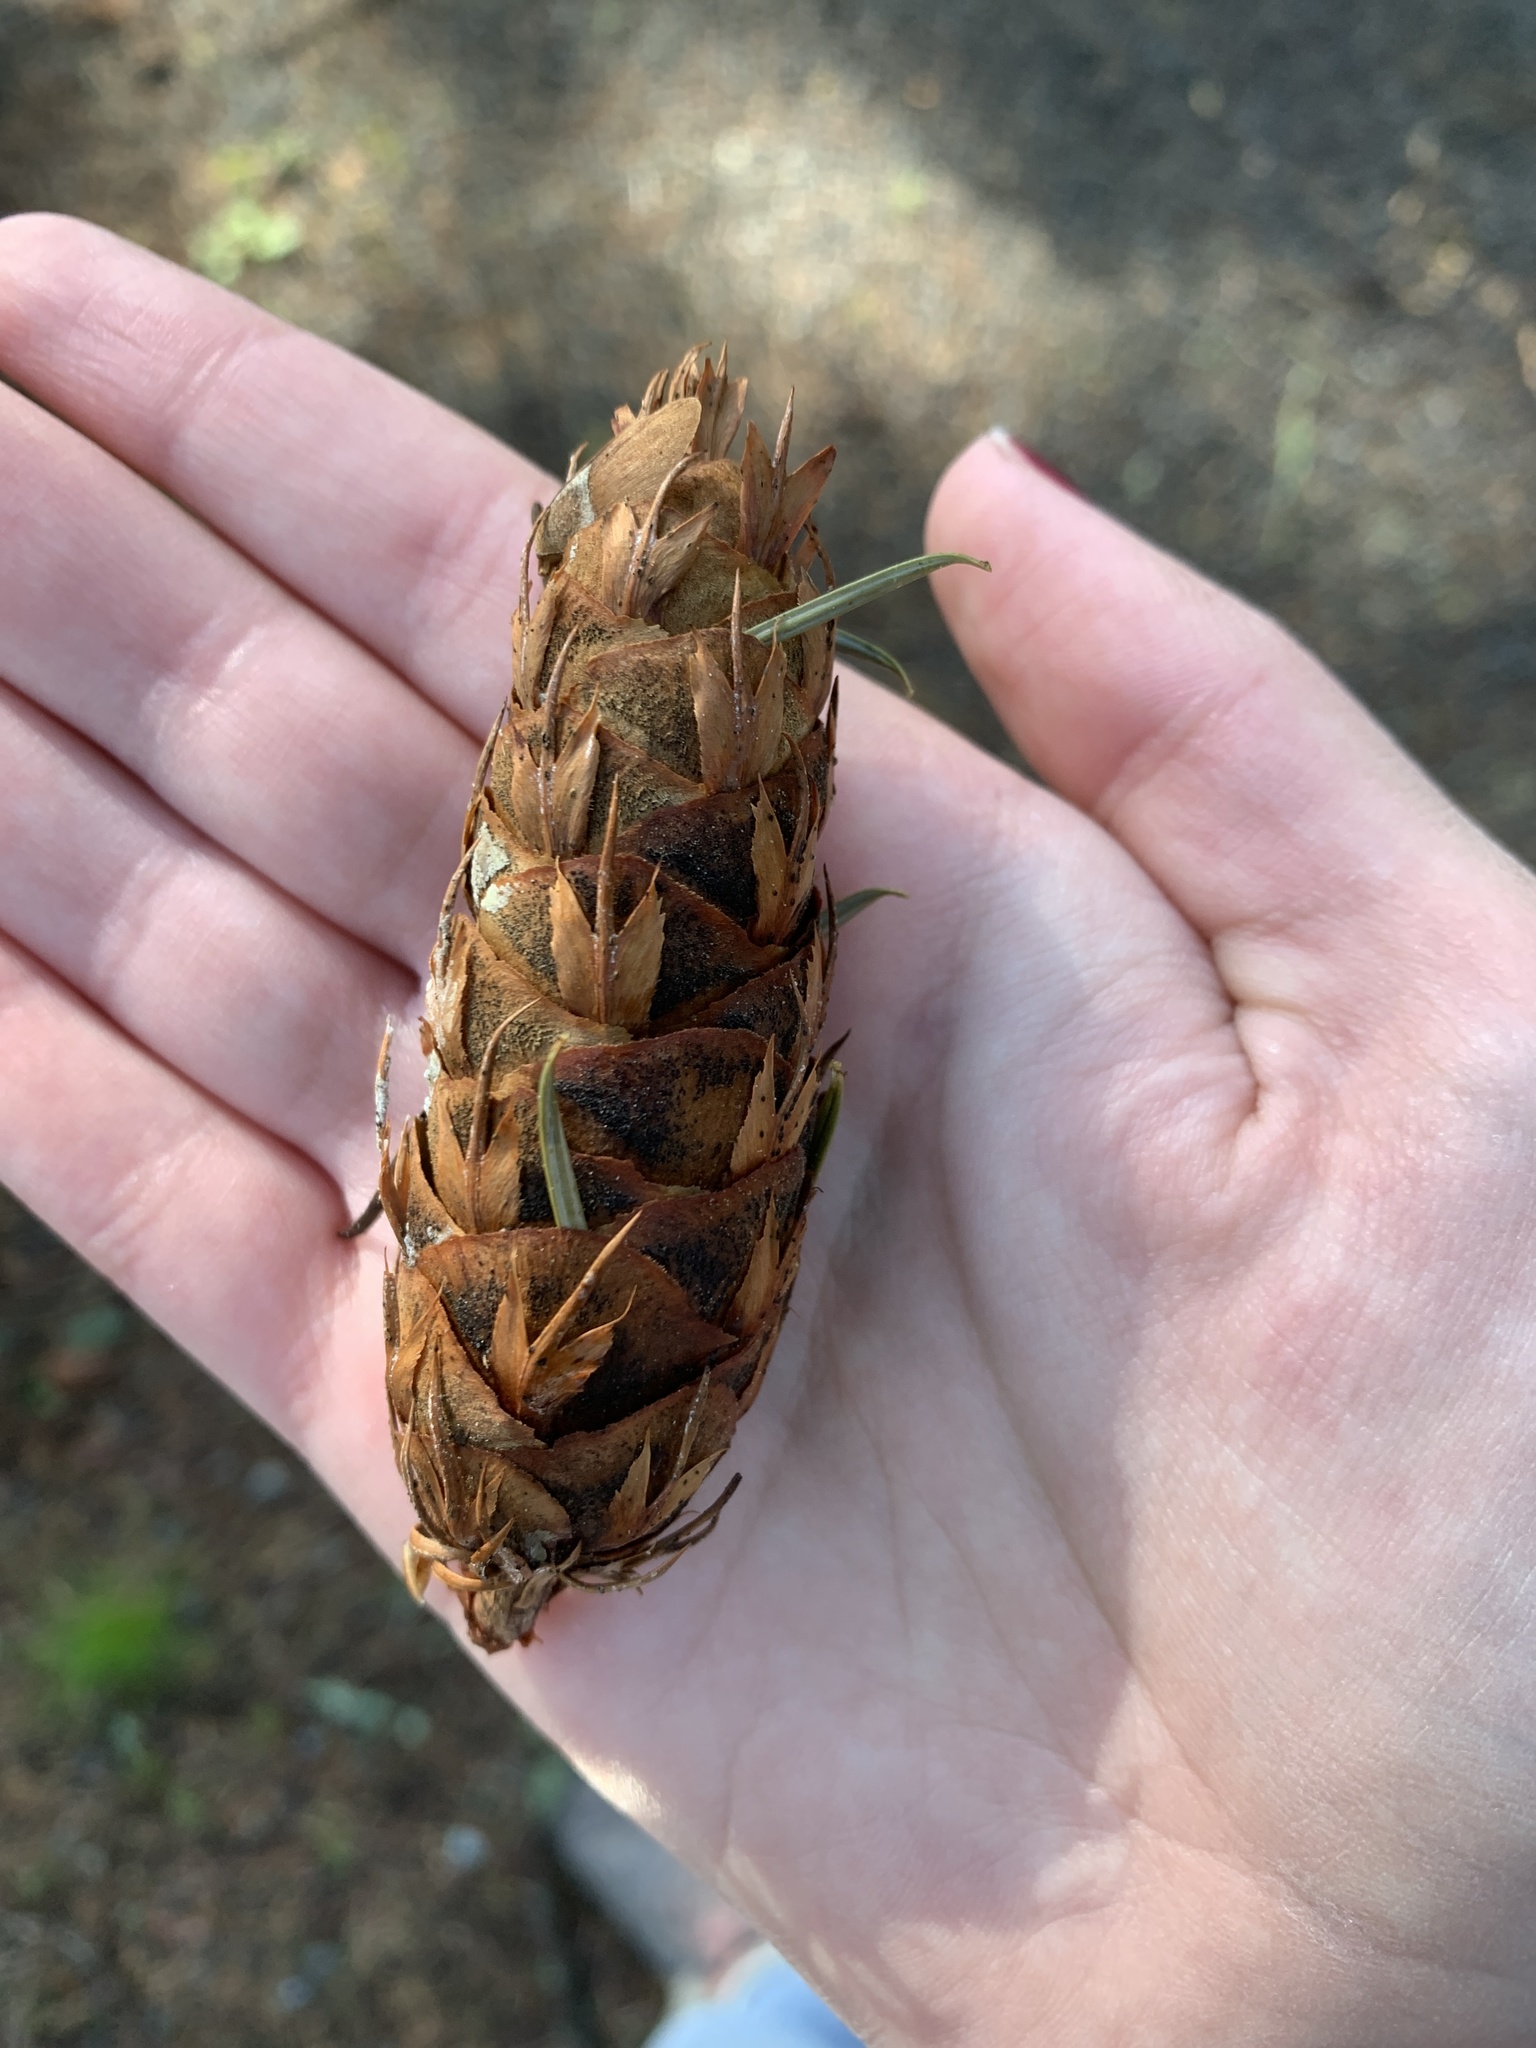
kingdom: Plantae
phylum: Tracheophyta
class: Pinopsida
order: Pinales
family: Pinaceae
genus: Pseudotsuga
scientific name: Pseudotsuga menziesii
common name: Douglas fir
